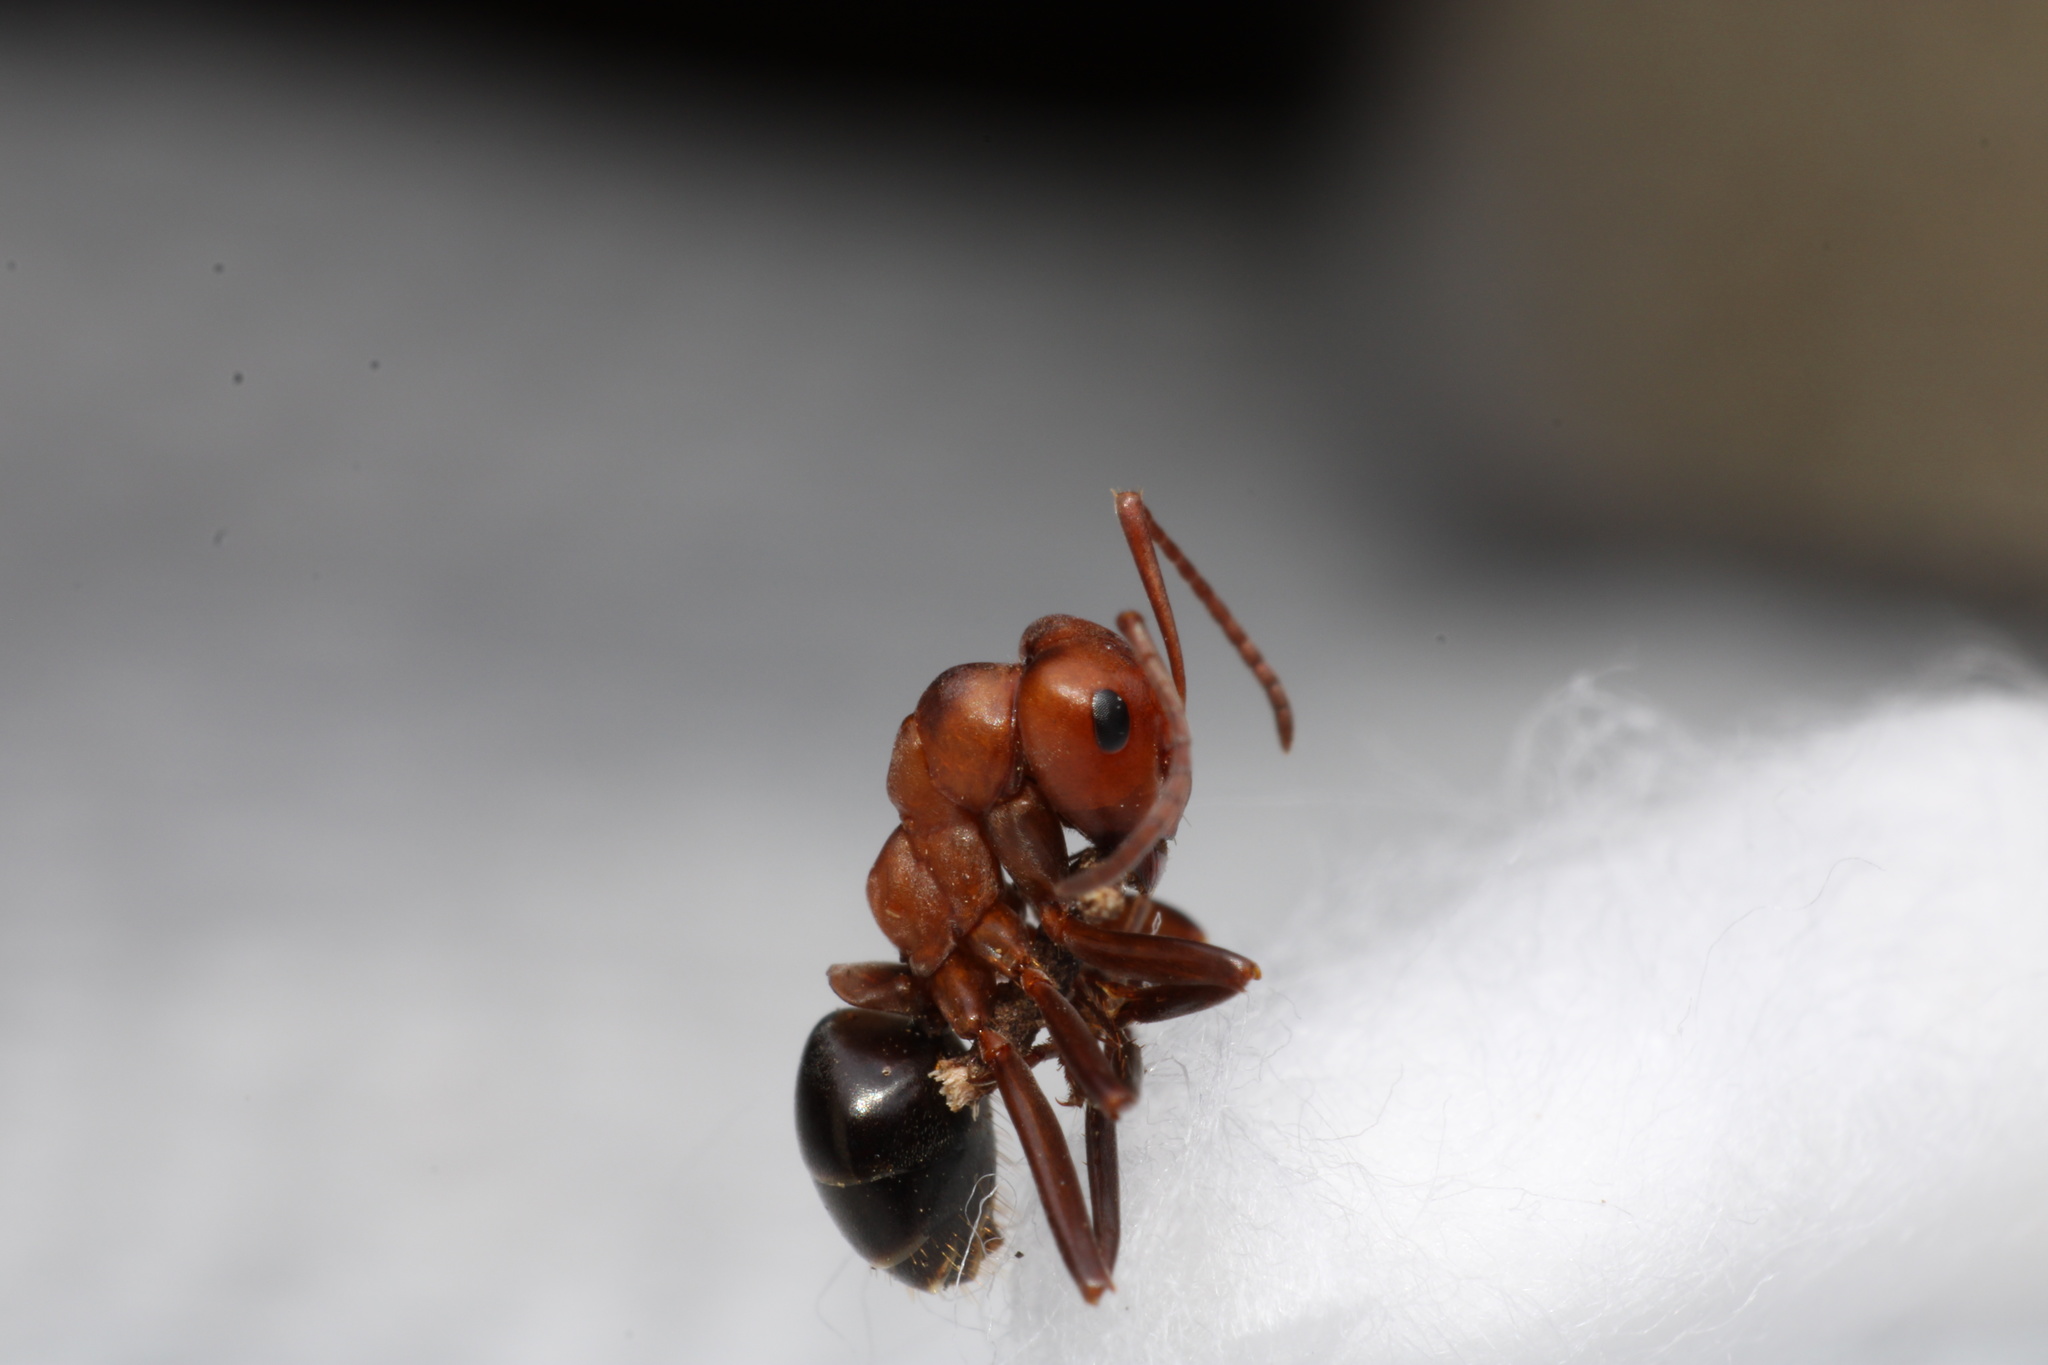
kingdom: Animalia
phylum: Arthropoda
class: Insecta
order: Hymenoptera
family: Formicidae
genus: Formica
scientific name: Formica exsectoides
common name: Allegheny mound ant
